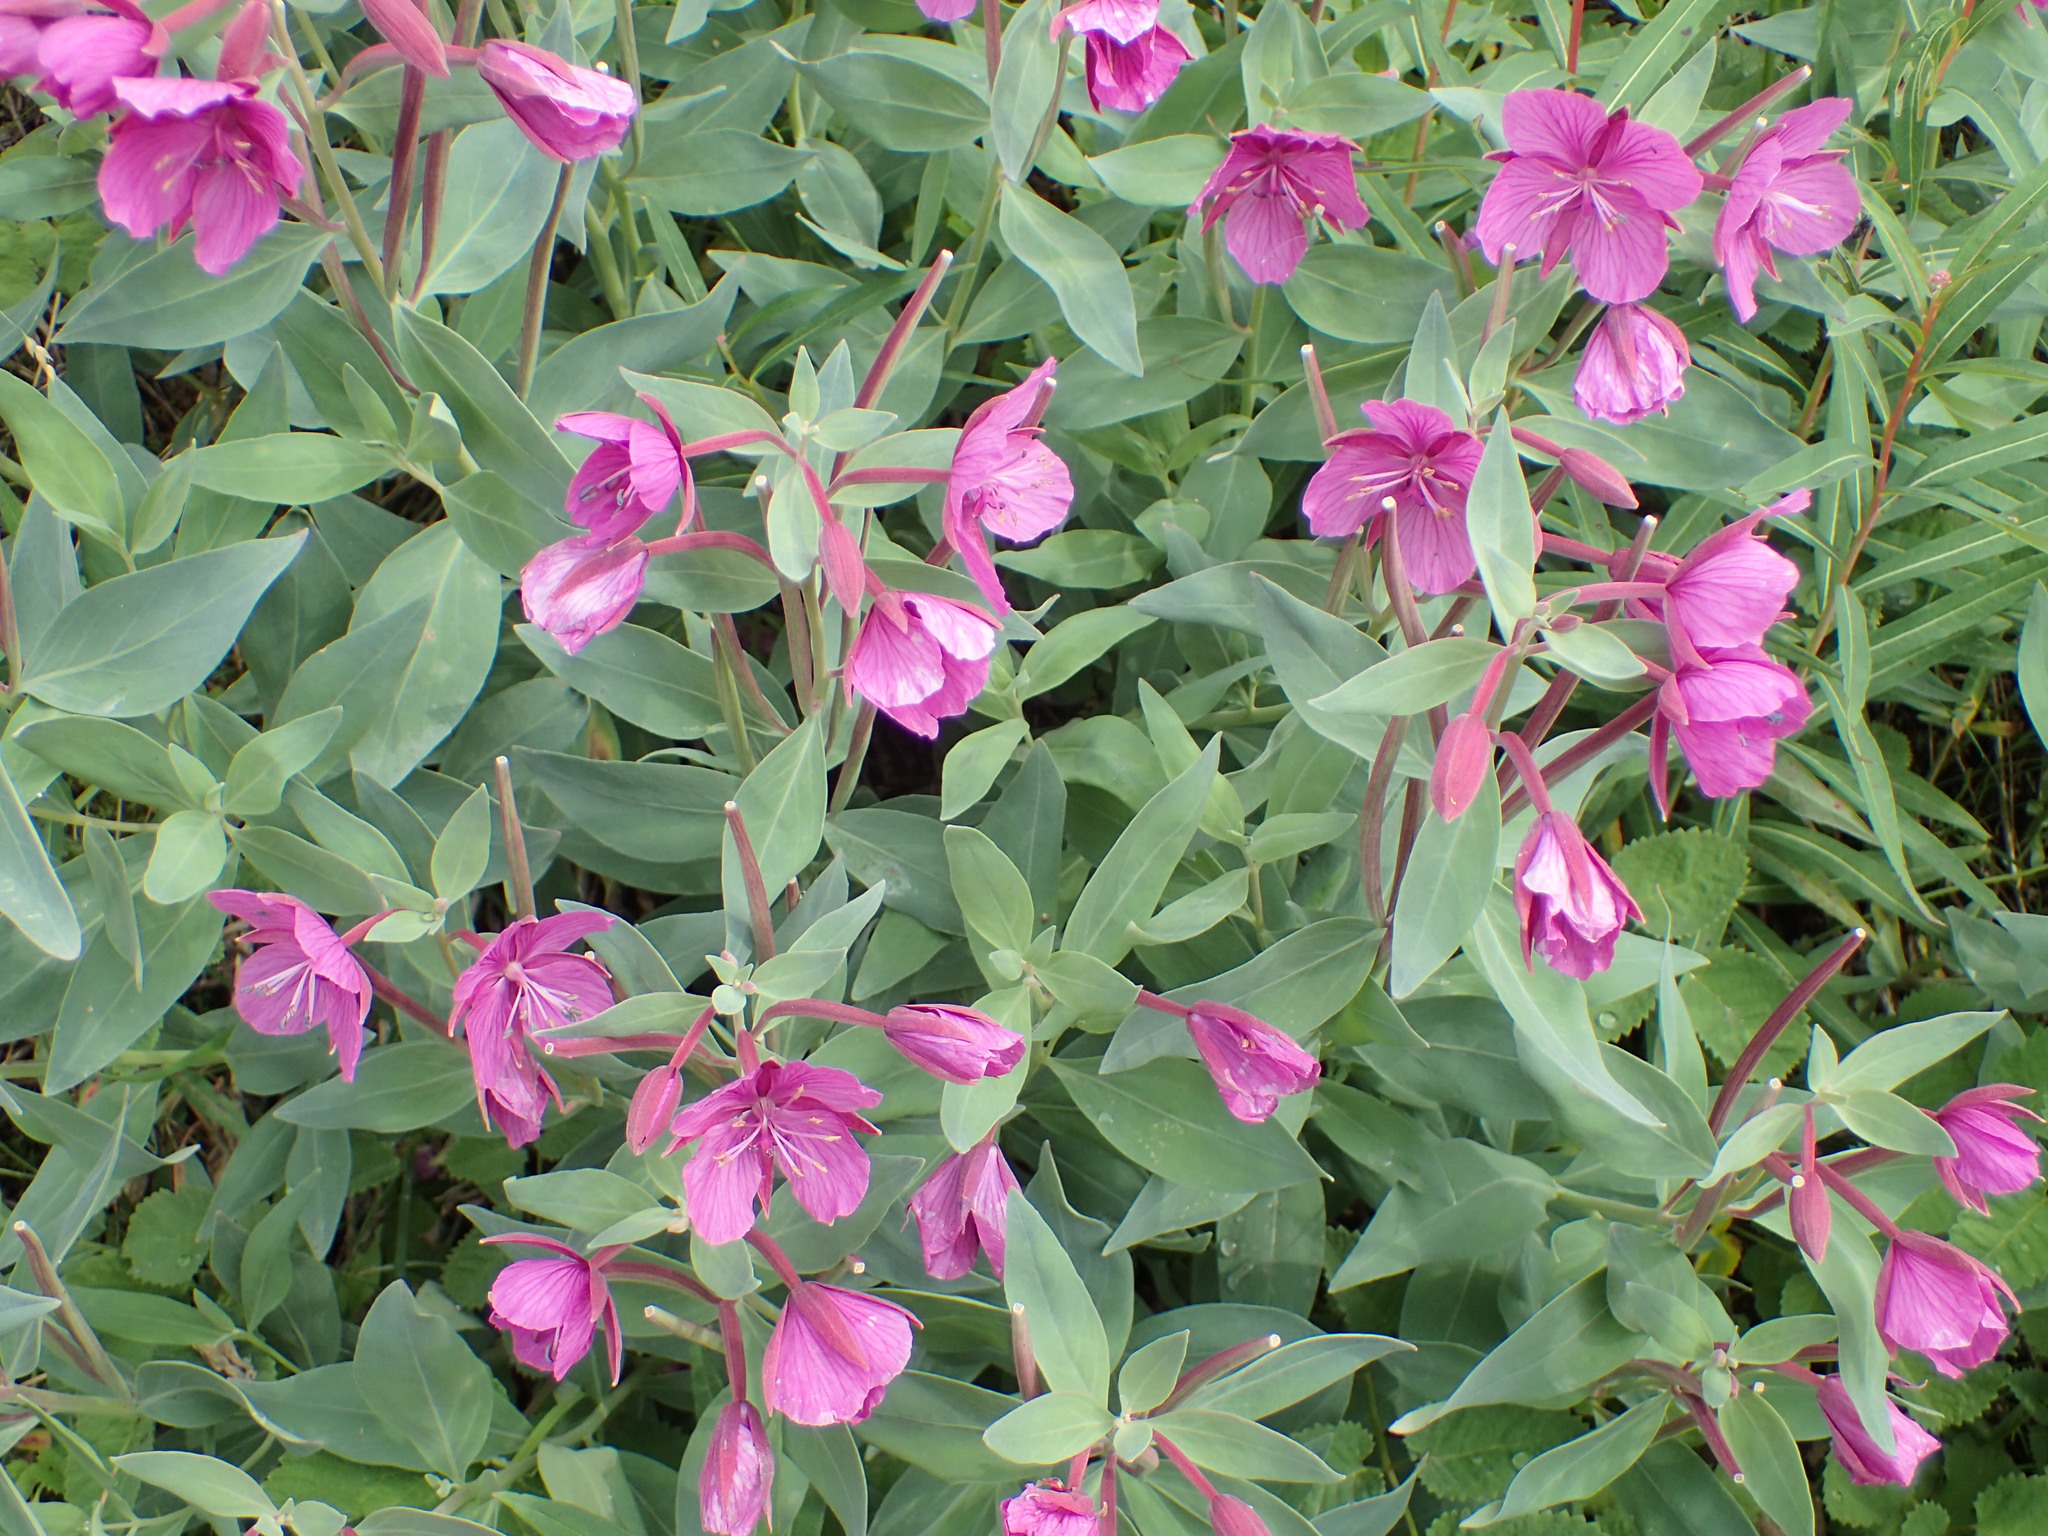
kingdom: Plantae
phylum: Tracheophyta
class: Magnoliopsida
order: Myrtales
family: Onagraceae
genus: Chamaenerion
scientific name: Chamaenerion latifolium
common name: Dwarf fireweed
